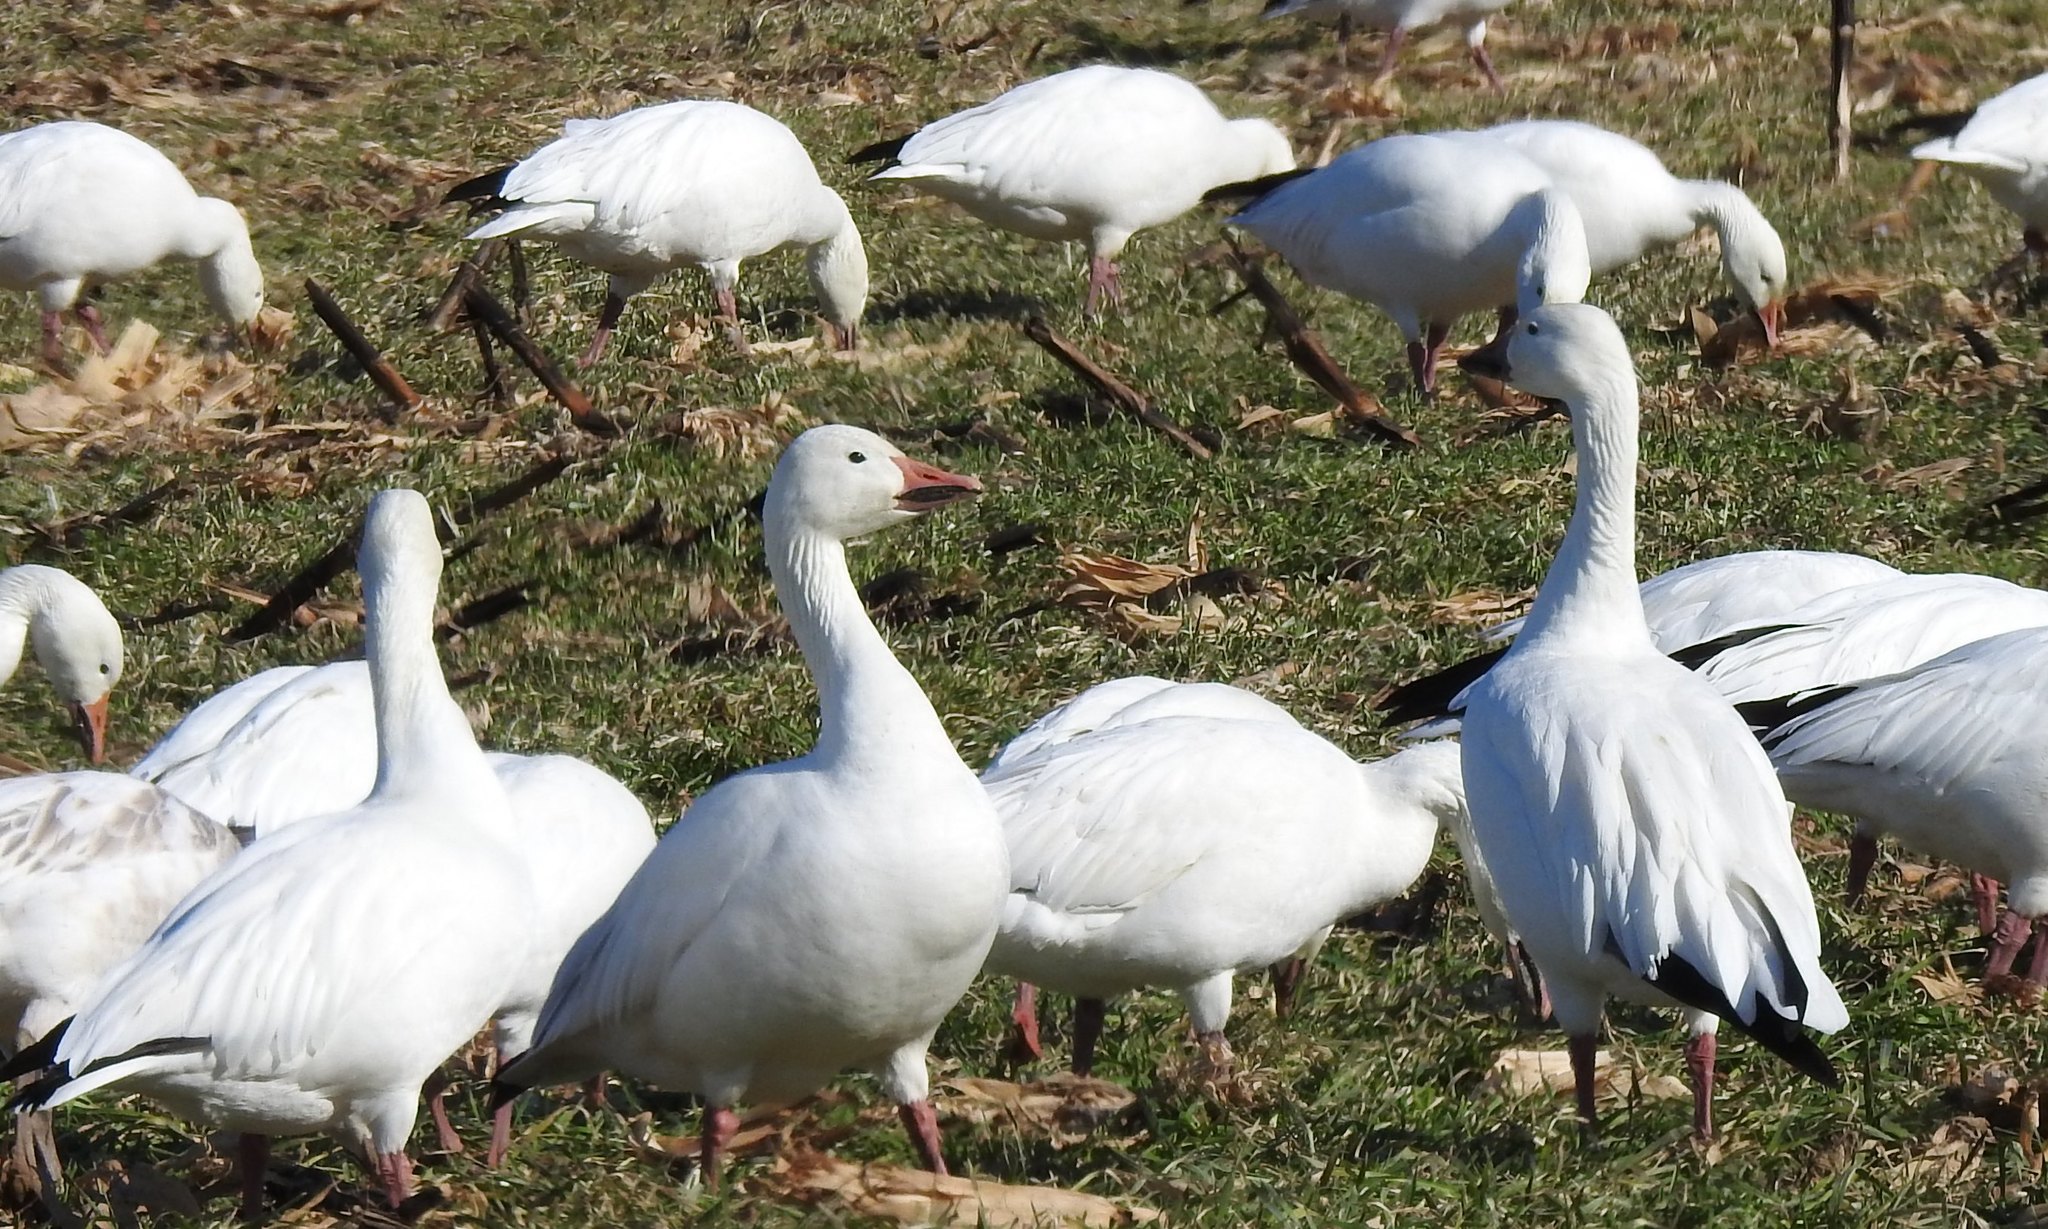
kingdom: Animalia
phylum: Chordata
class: Aves
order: Anseriformes
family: Anatidae
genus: Anser
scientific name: Anser caerulescens
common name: Snow goose
